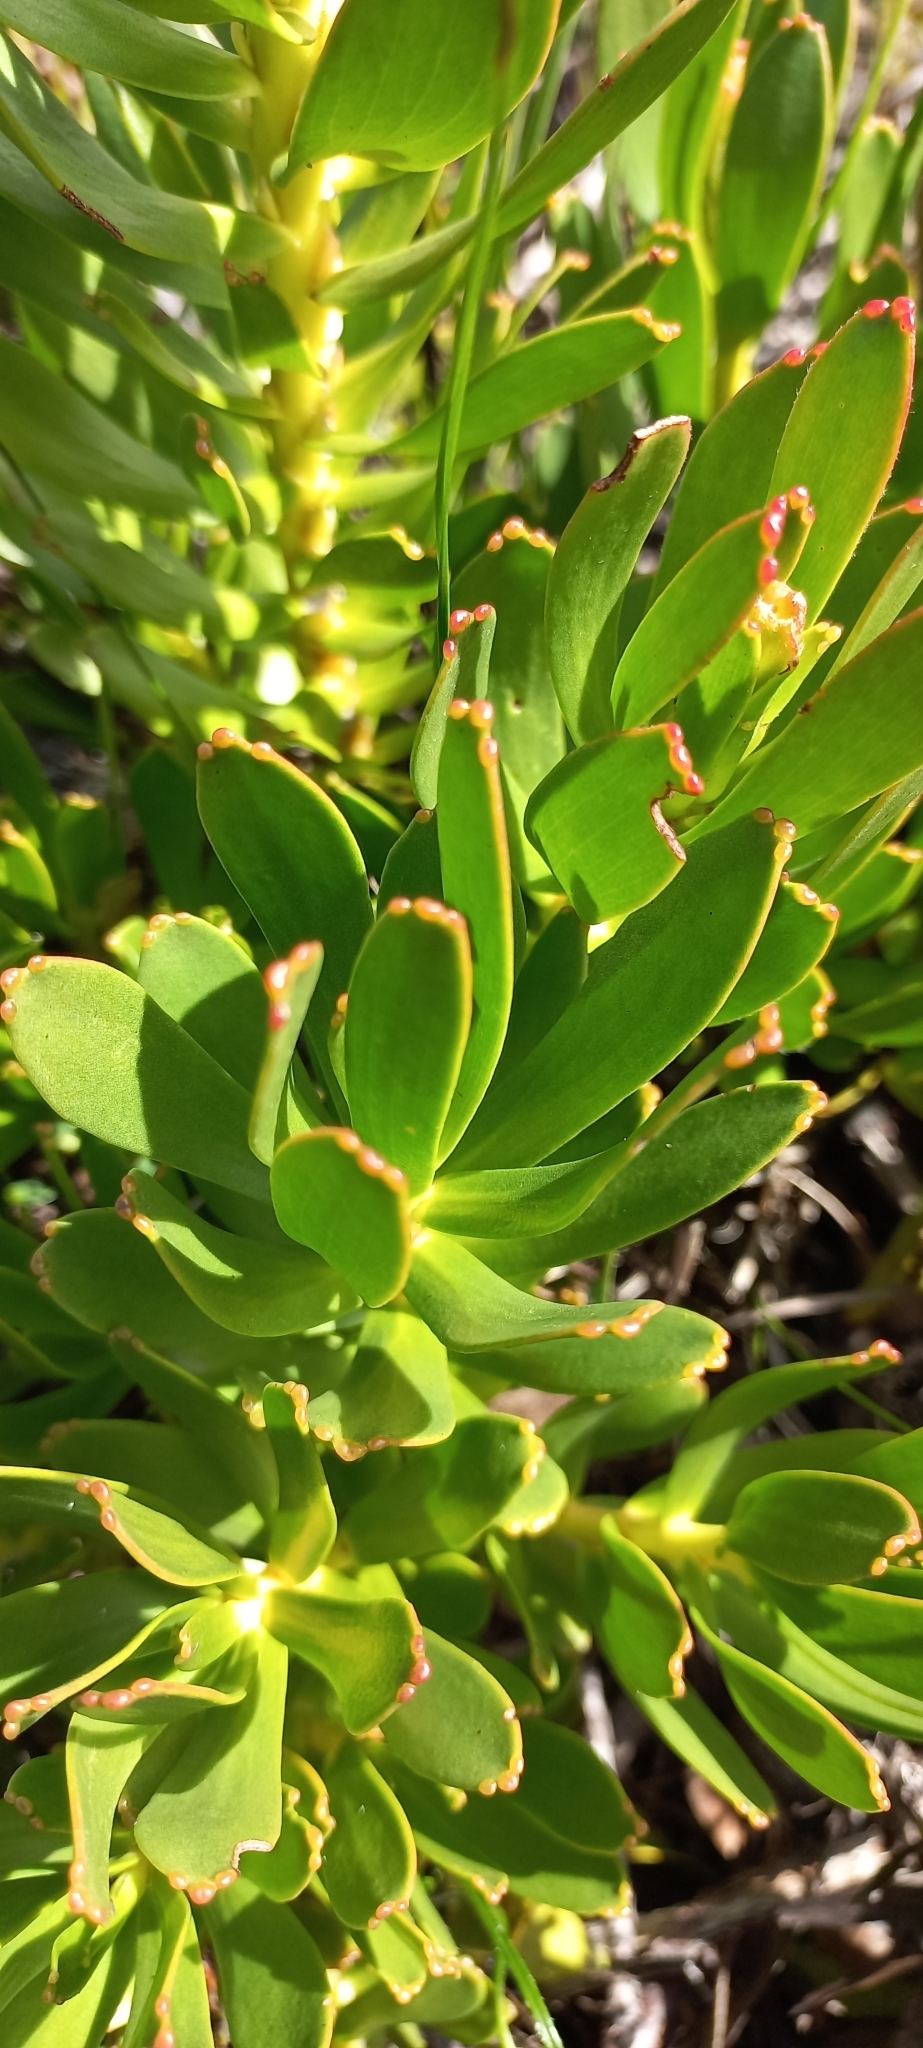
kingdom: Plantae
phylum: Tracheophyta
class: Magnoliopsida
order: Proteales
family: Proteaceae
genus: Mimetes
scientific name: Mimetes cucullatus
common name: Common pagoda
